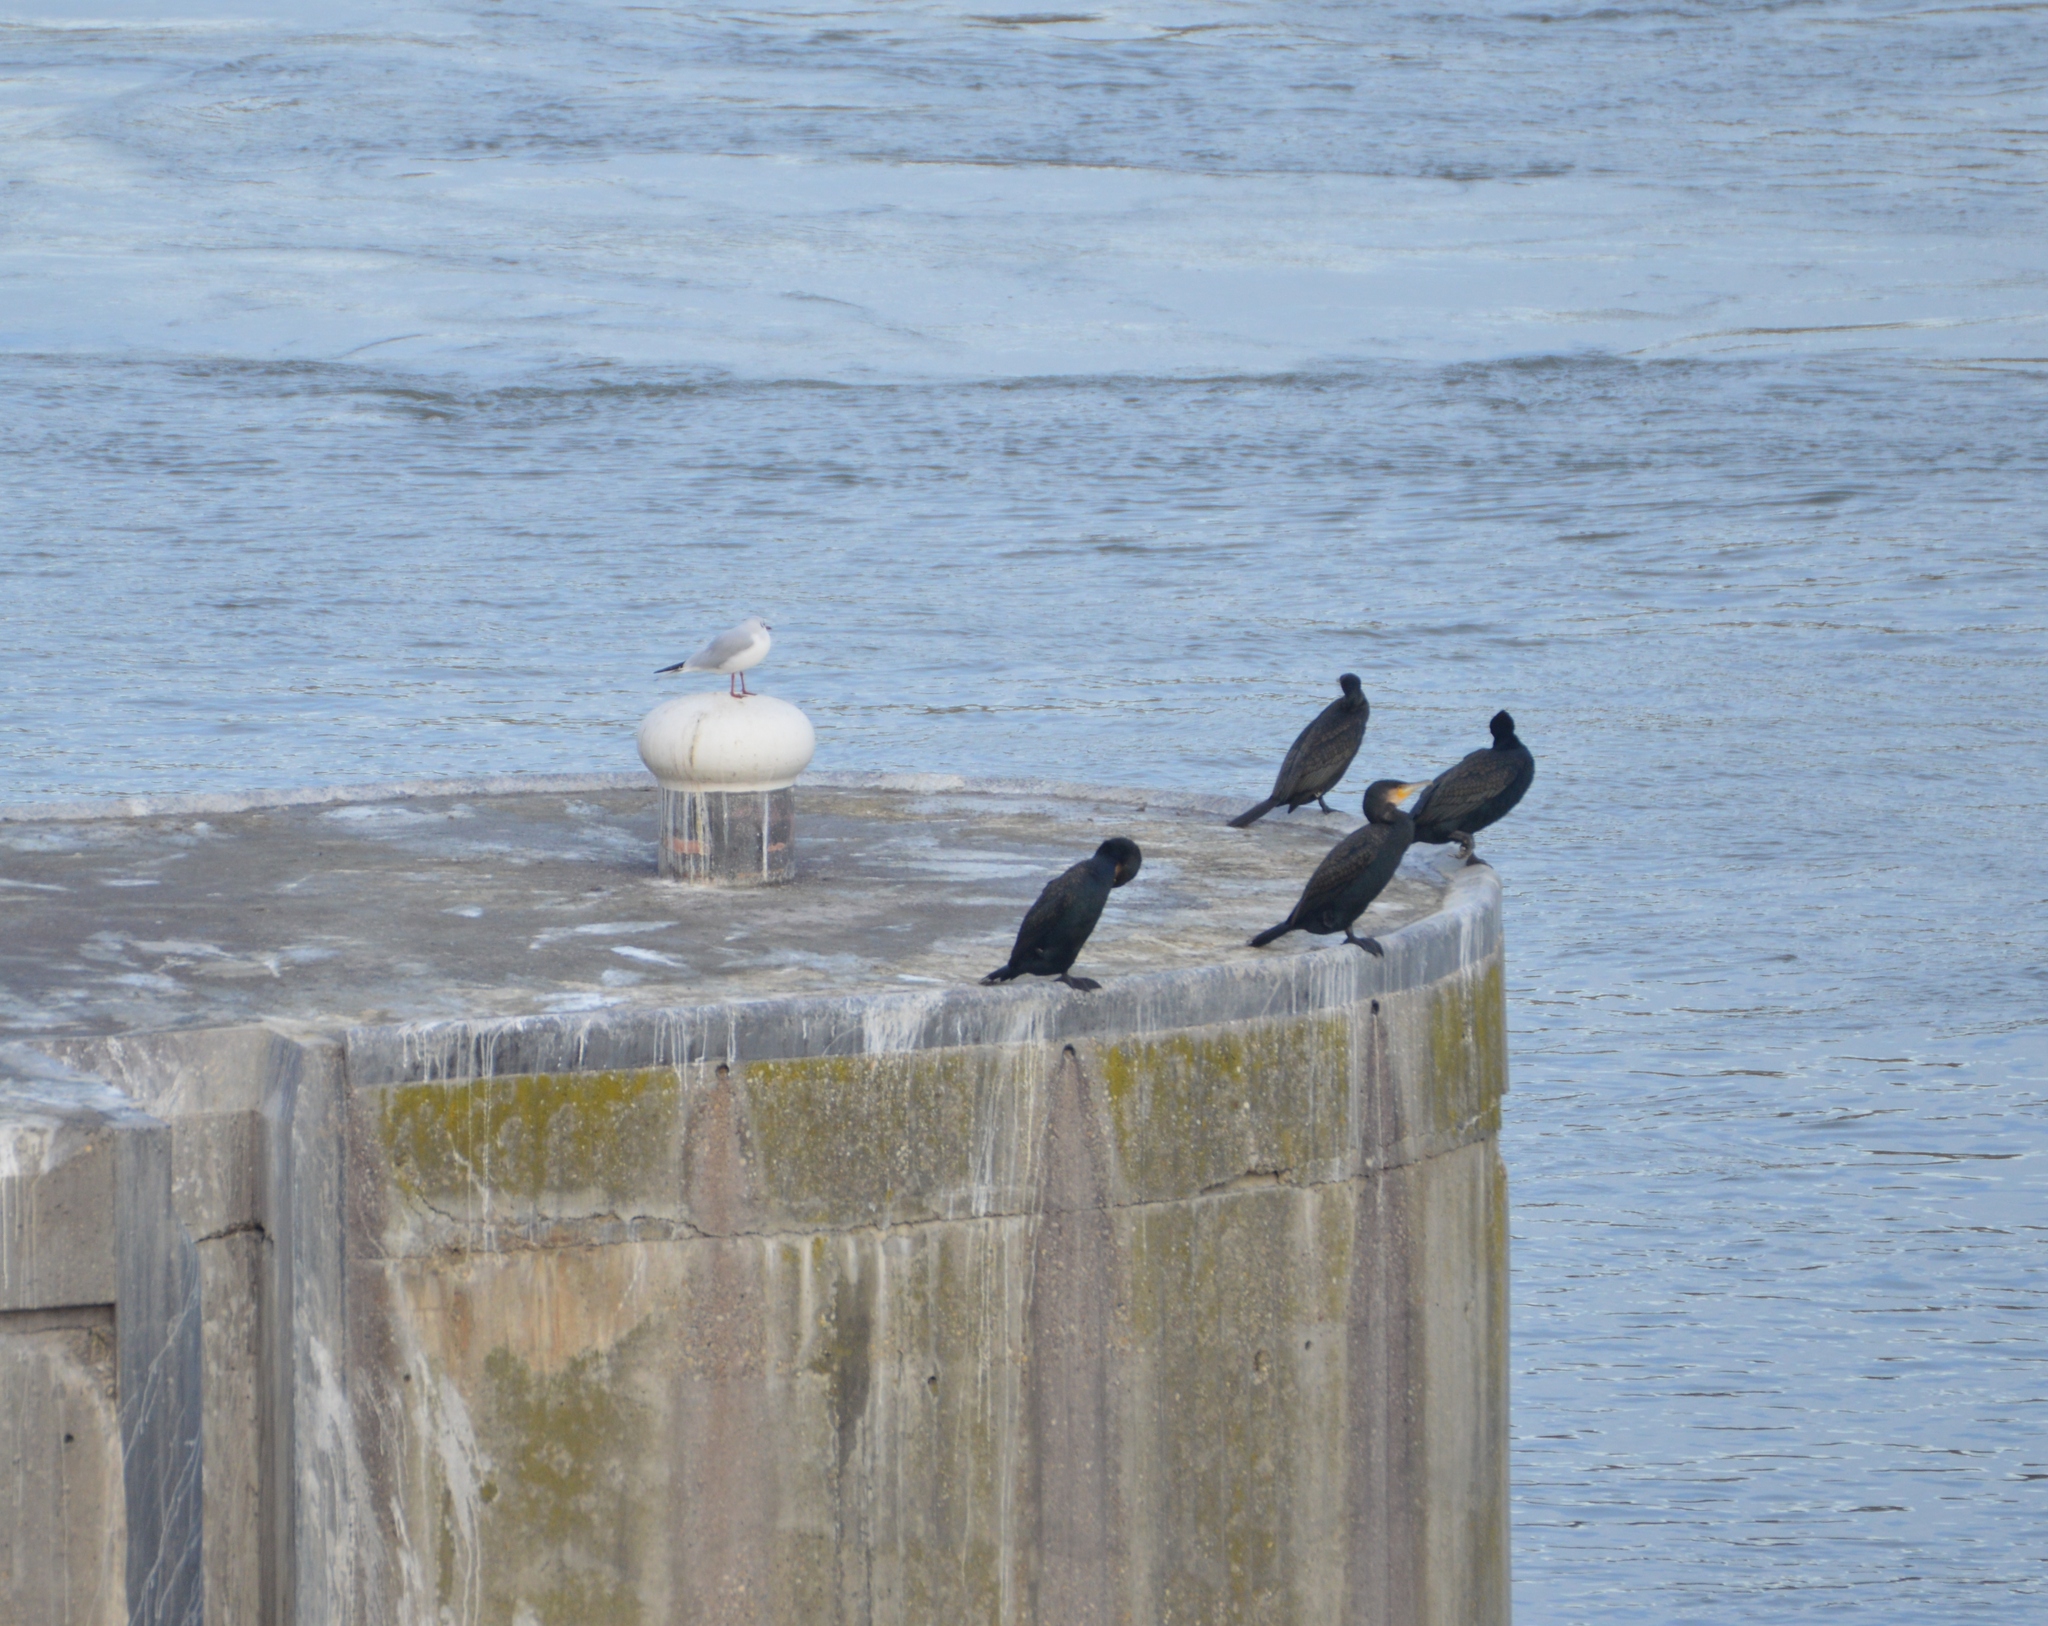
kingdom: Animalia
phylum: Chordata
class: Aves
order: Charadriiformes
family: Laridae
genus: Chroicocephalus
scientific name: Chroicocephalus ridibundus
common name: Black-headed gull
